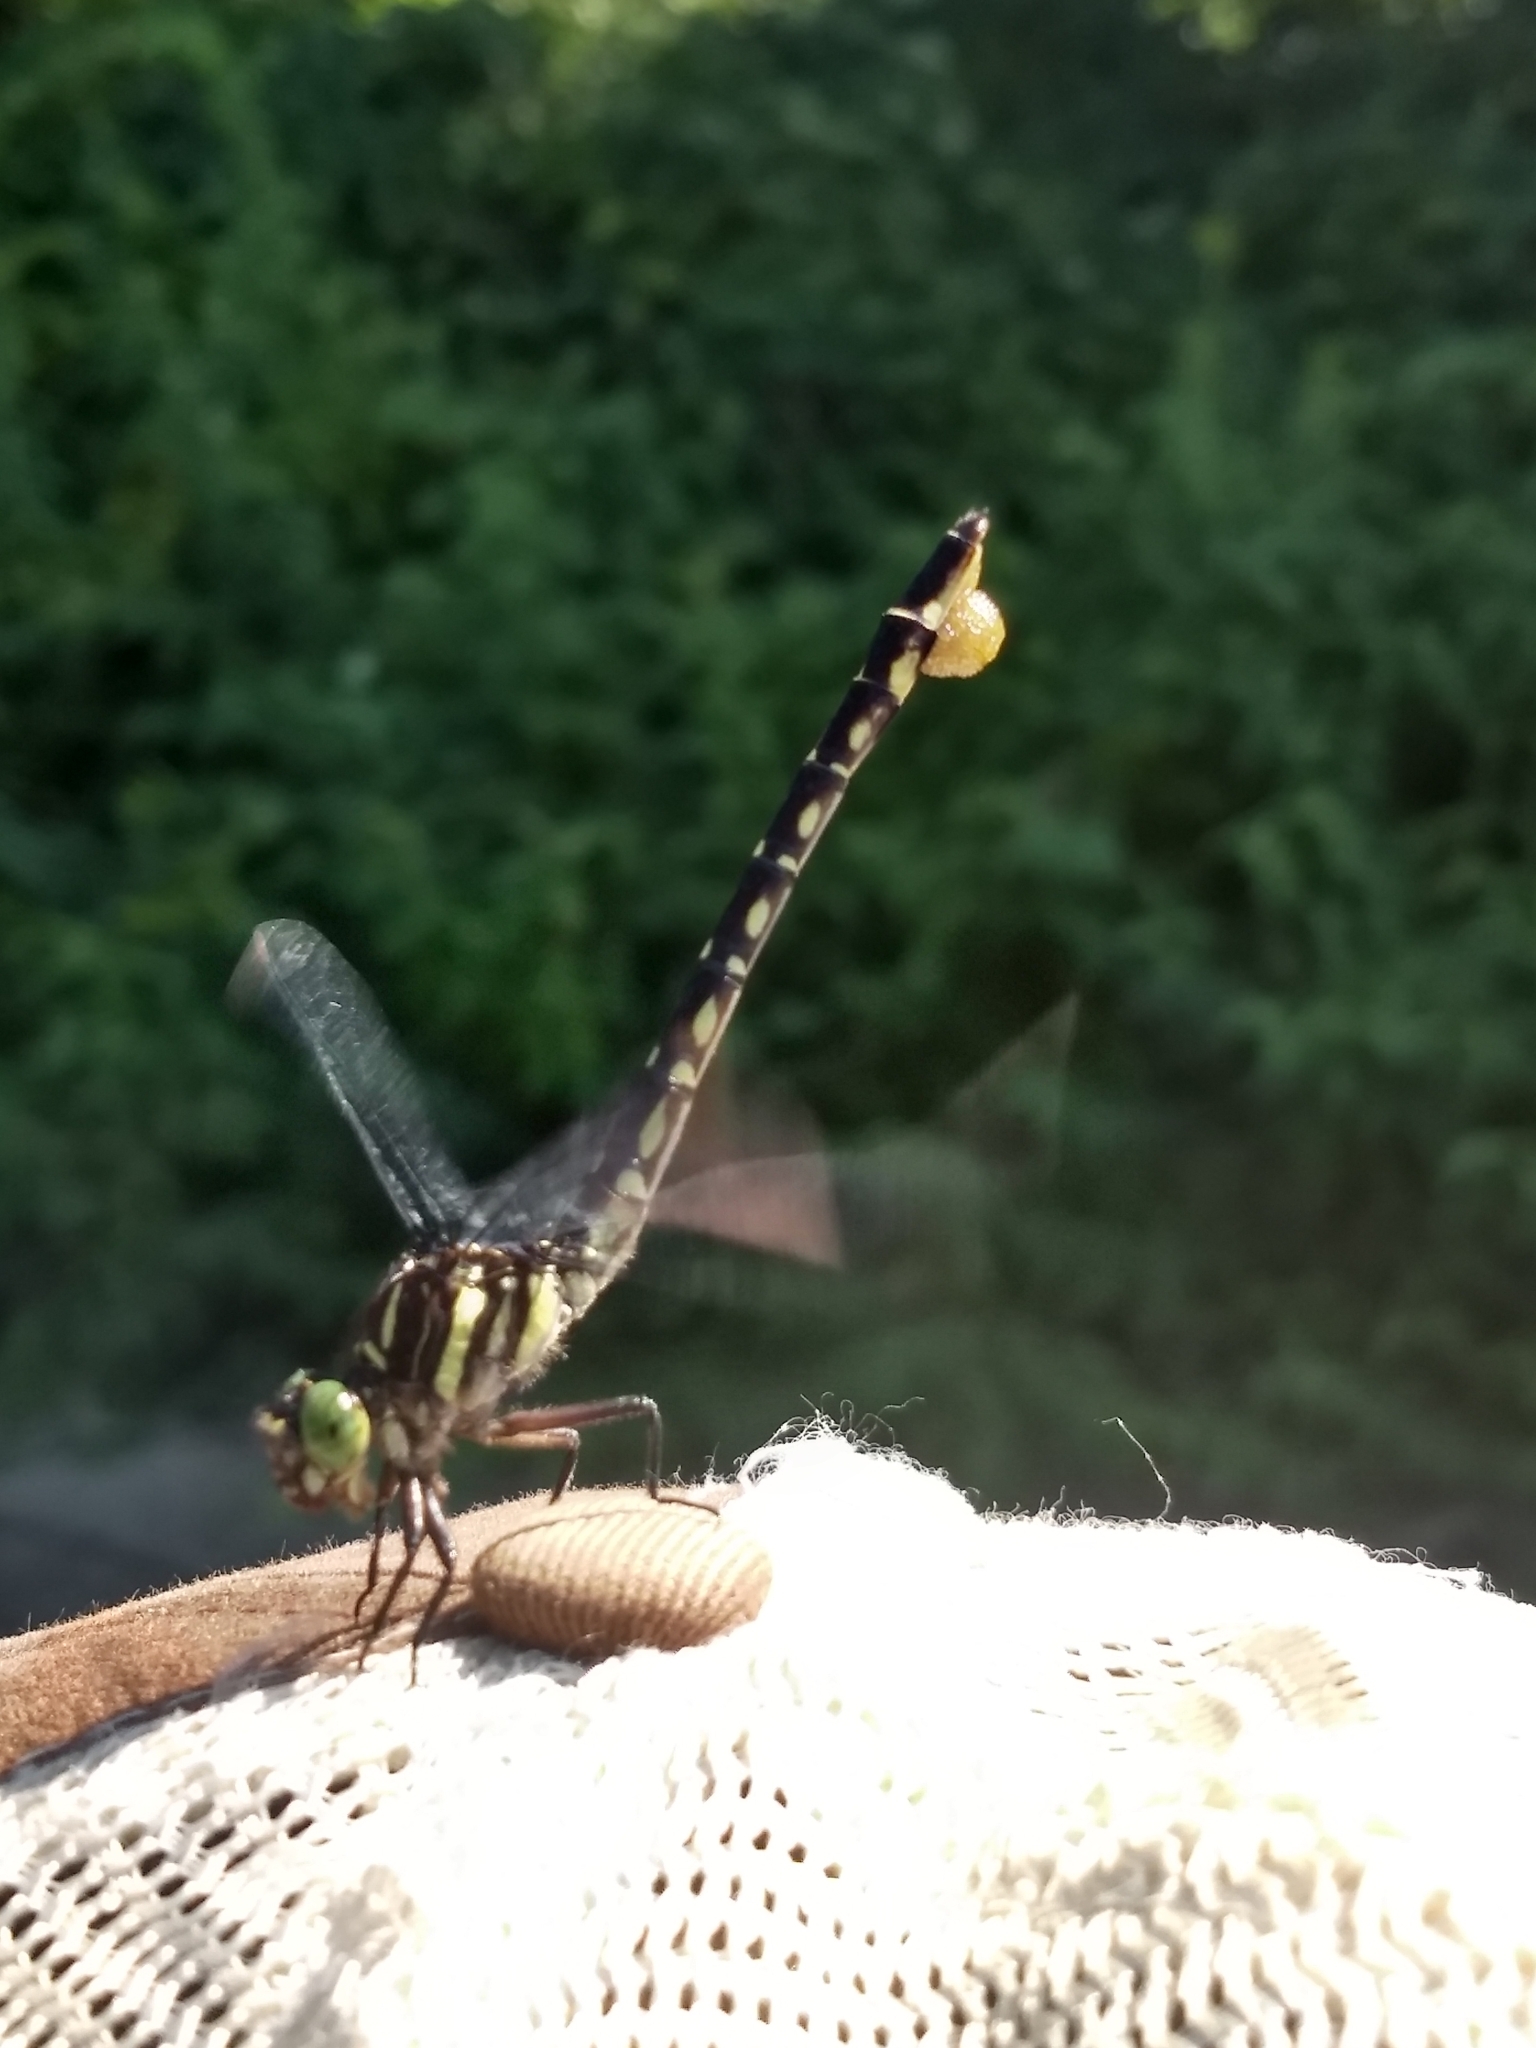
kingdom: Animalia
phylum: Arthropoda
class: Insecta
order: Odonata
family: Gomphidae
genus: Stylurus
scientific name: Stylurus spiniceps
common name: Arrow clubtail
